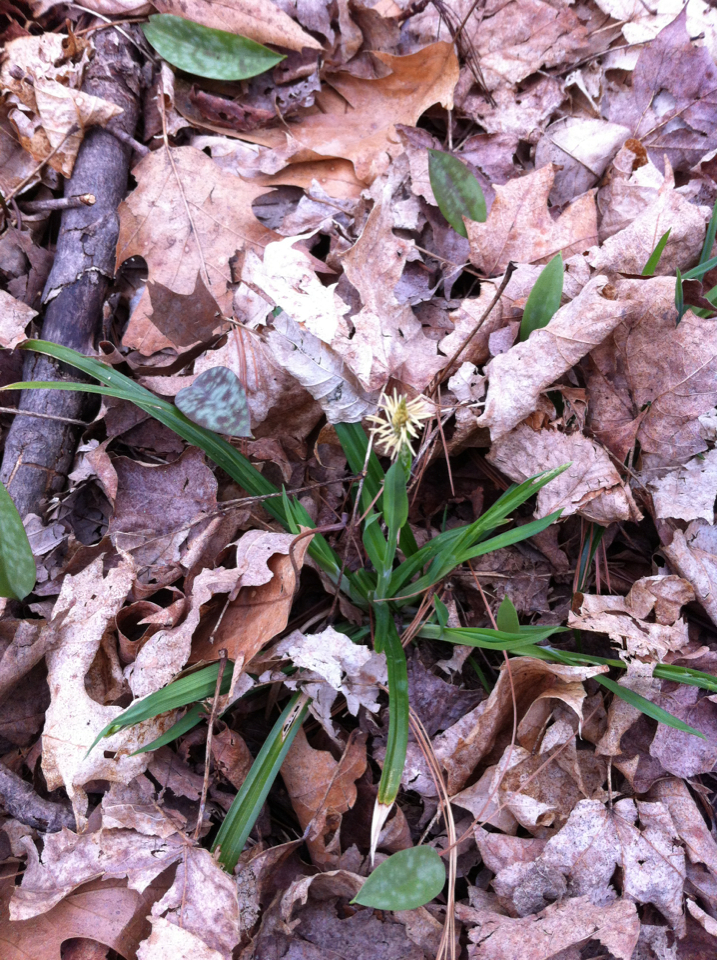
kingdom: Plantae
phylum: Tracheophyta
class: Liliopsida
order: Poales
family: Cyperaceae
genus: Carex
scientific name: Carex
